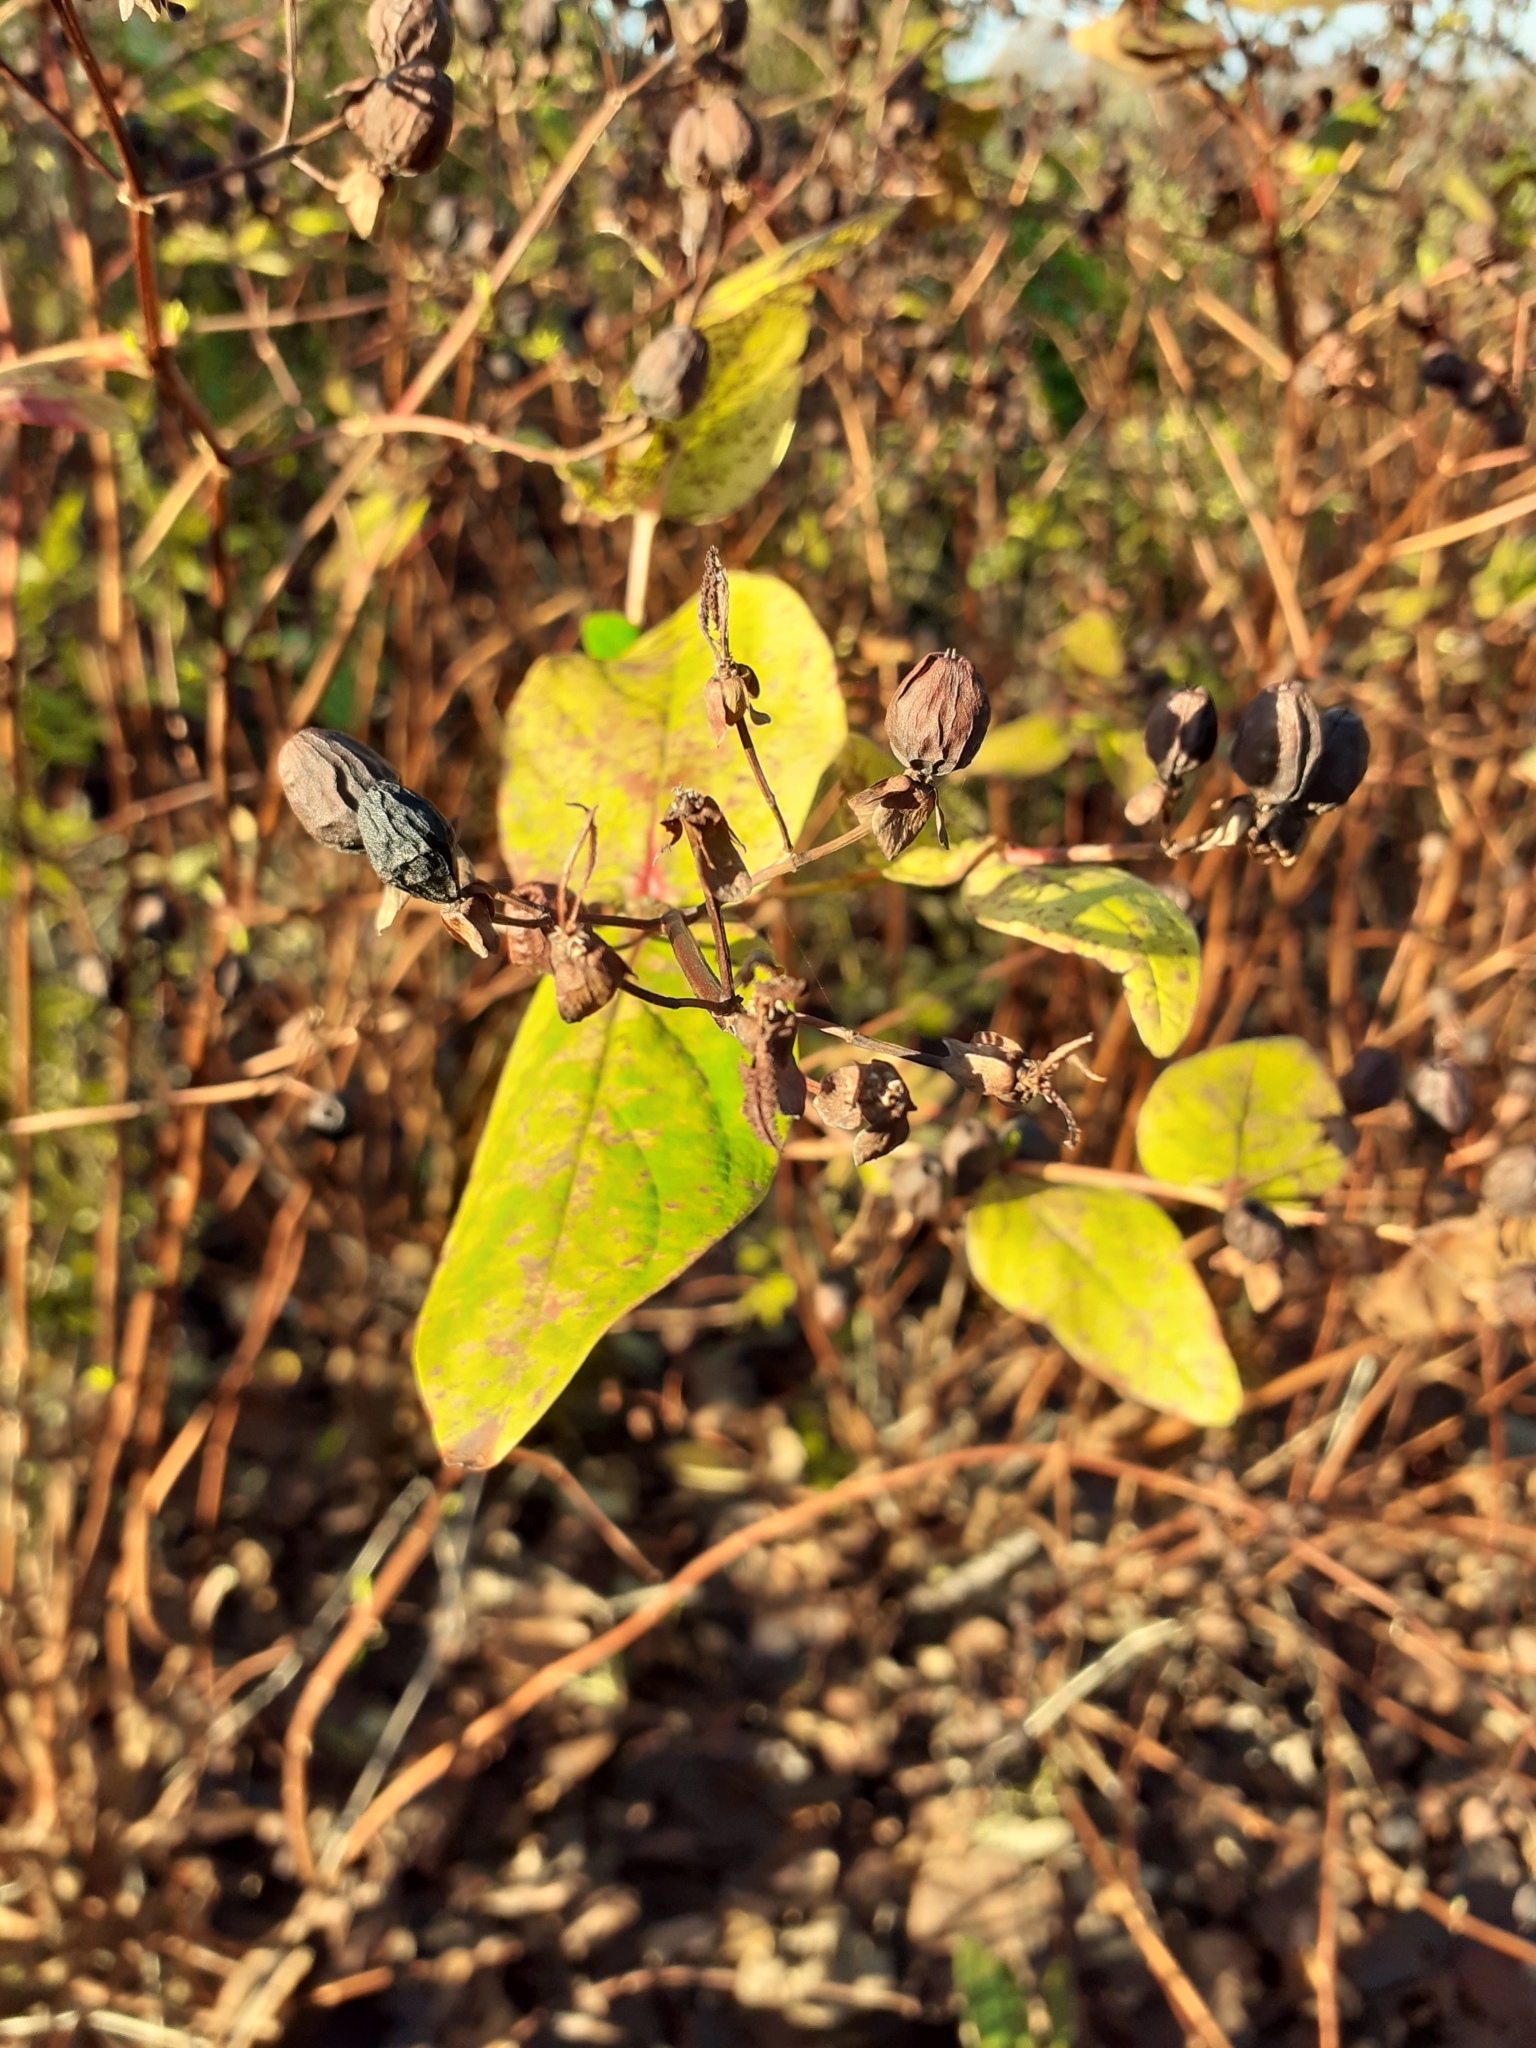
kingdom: Plantae
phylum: Tracheophyta
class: Magnoliopsida
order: Malpighiales
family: Hypericaceae
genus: Hypericum
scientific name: Hypericum androsaemum
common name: Sweet-amber
